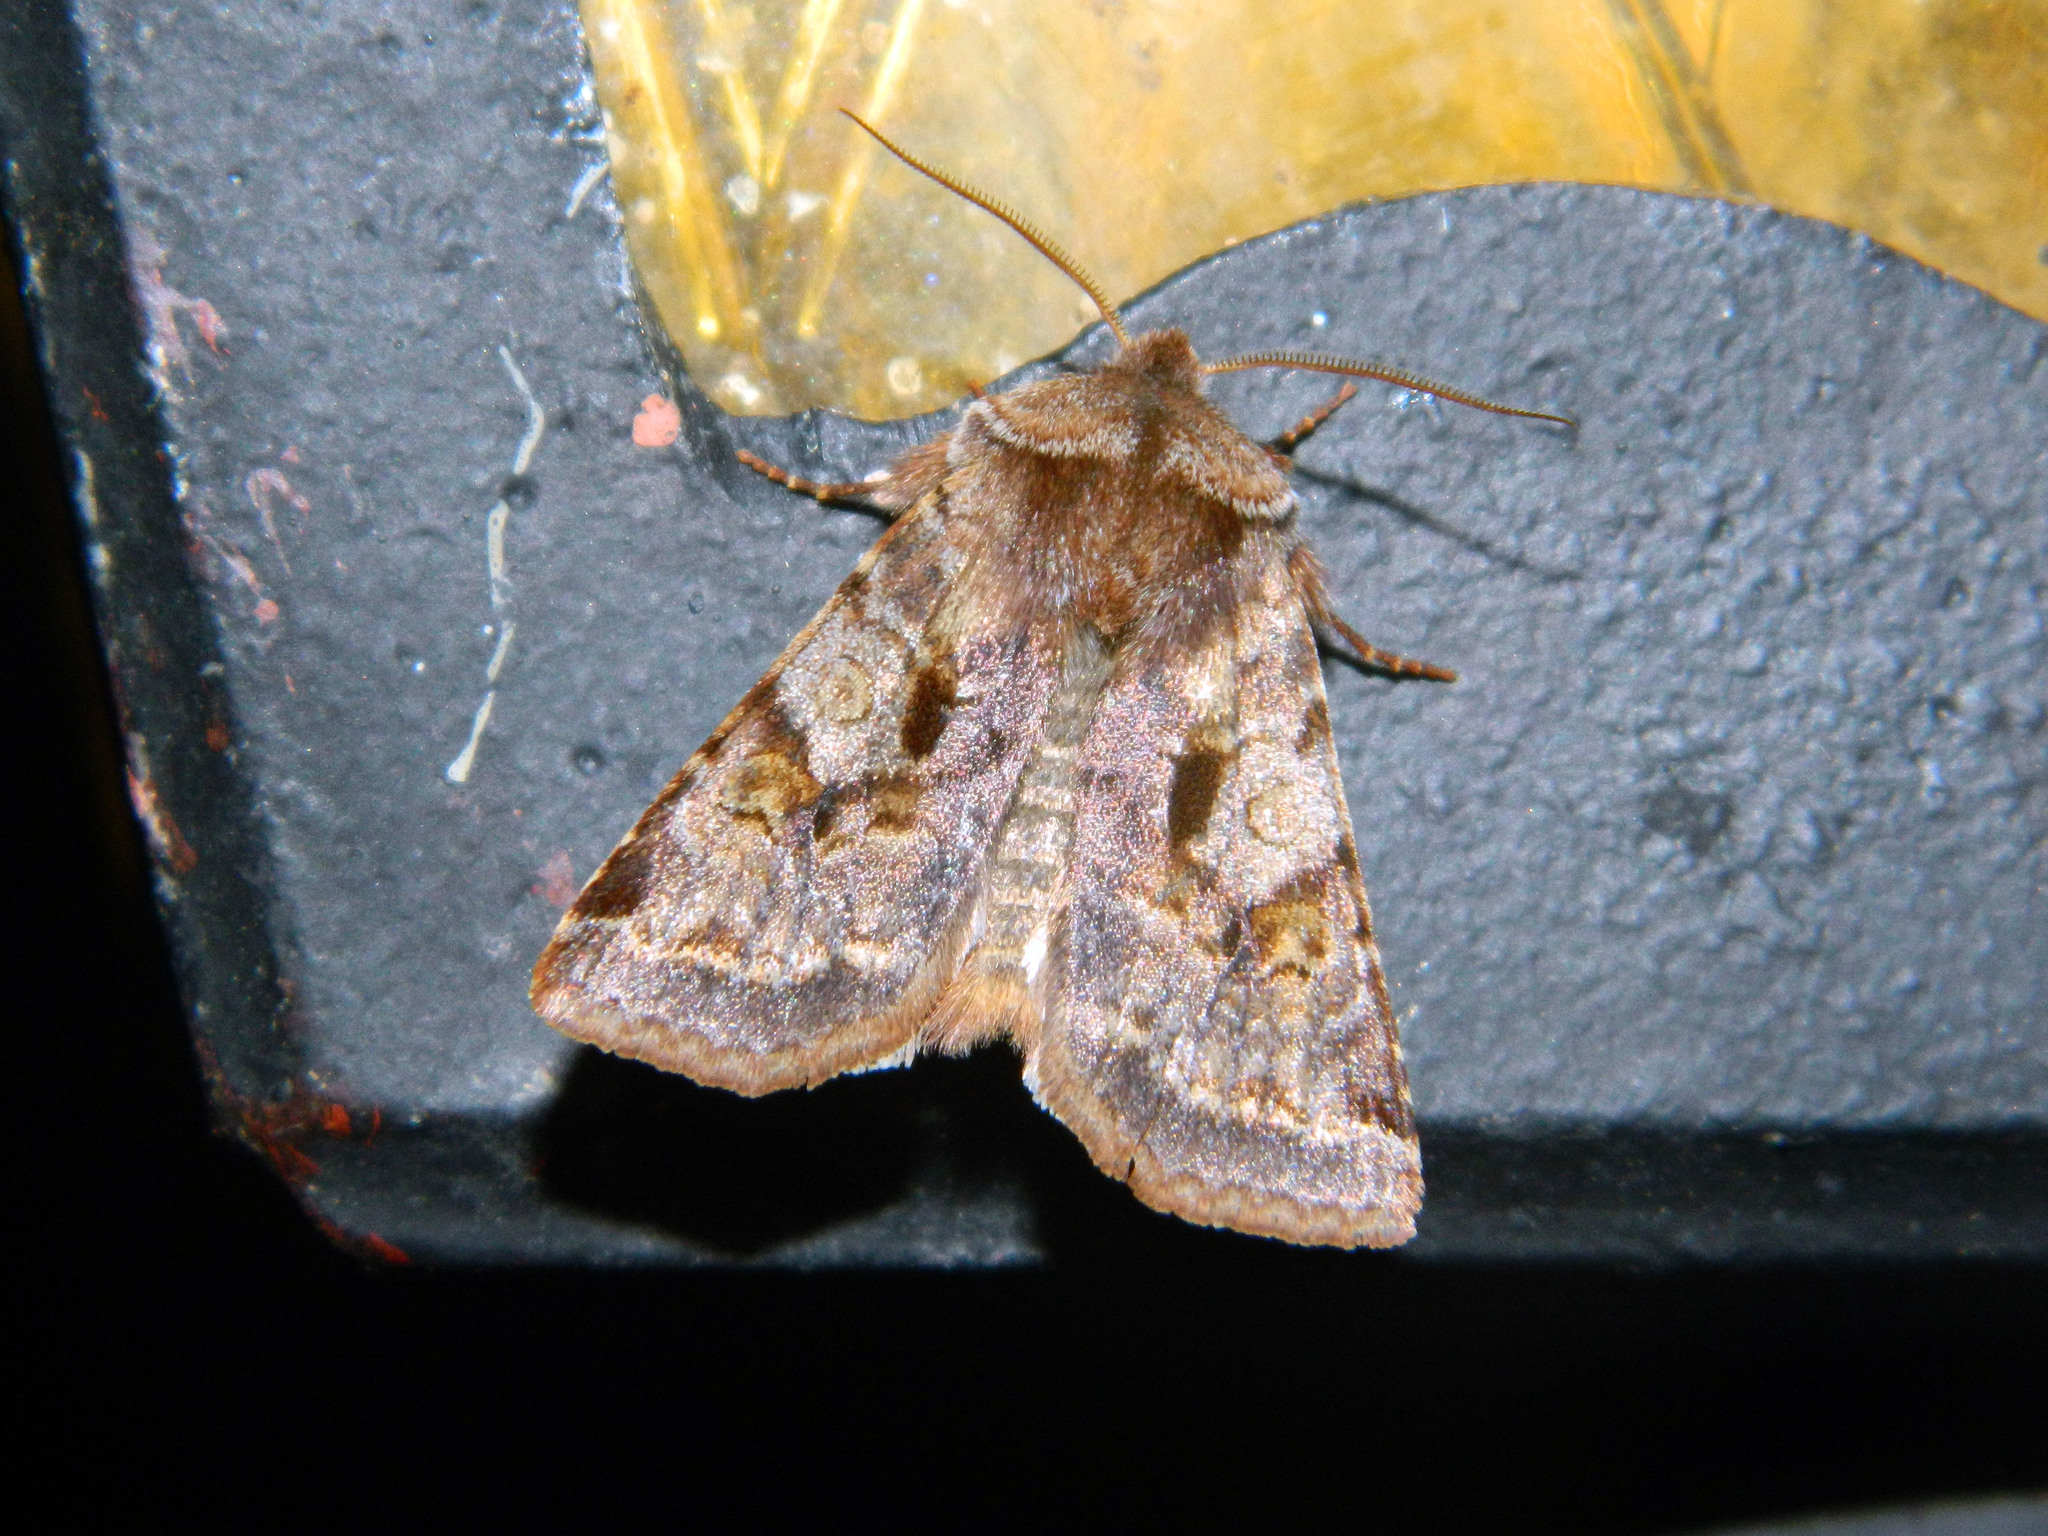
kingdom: Animalia
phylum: Arthropoda
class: Insecta
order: Lepidoptera
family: Noctuidae
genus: Cerastis
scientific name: Cerastis salicarum
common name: Willow dart
